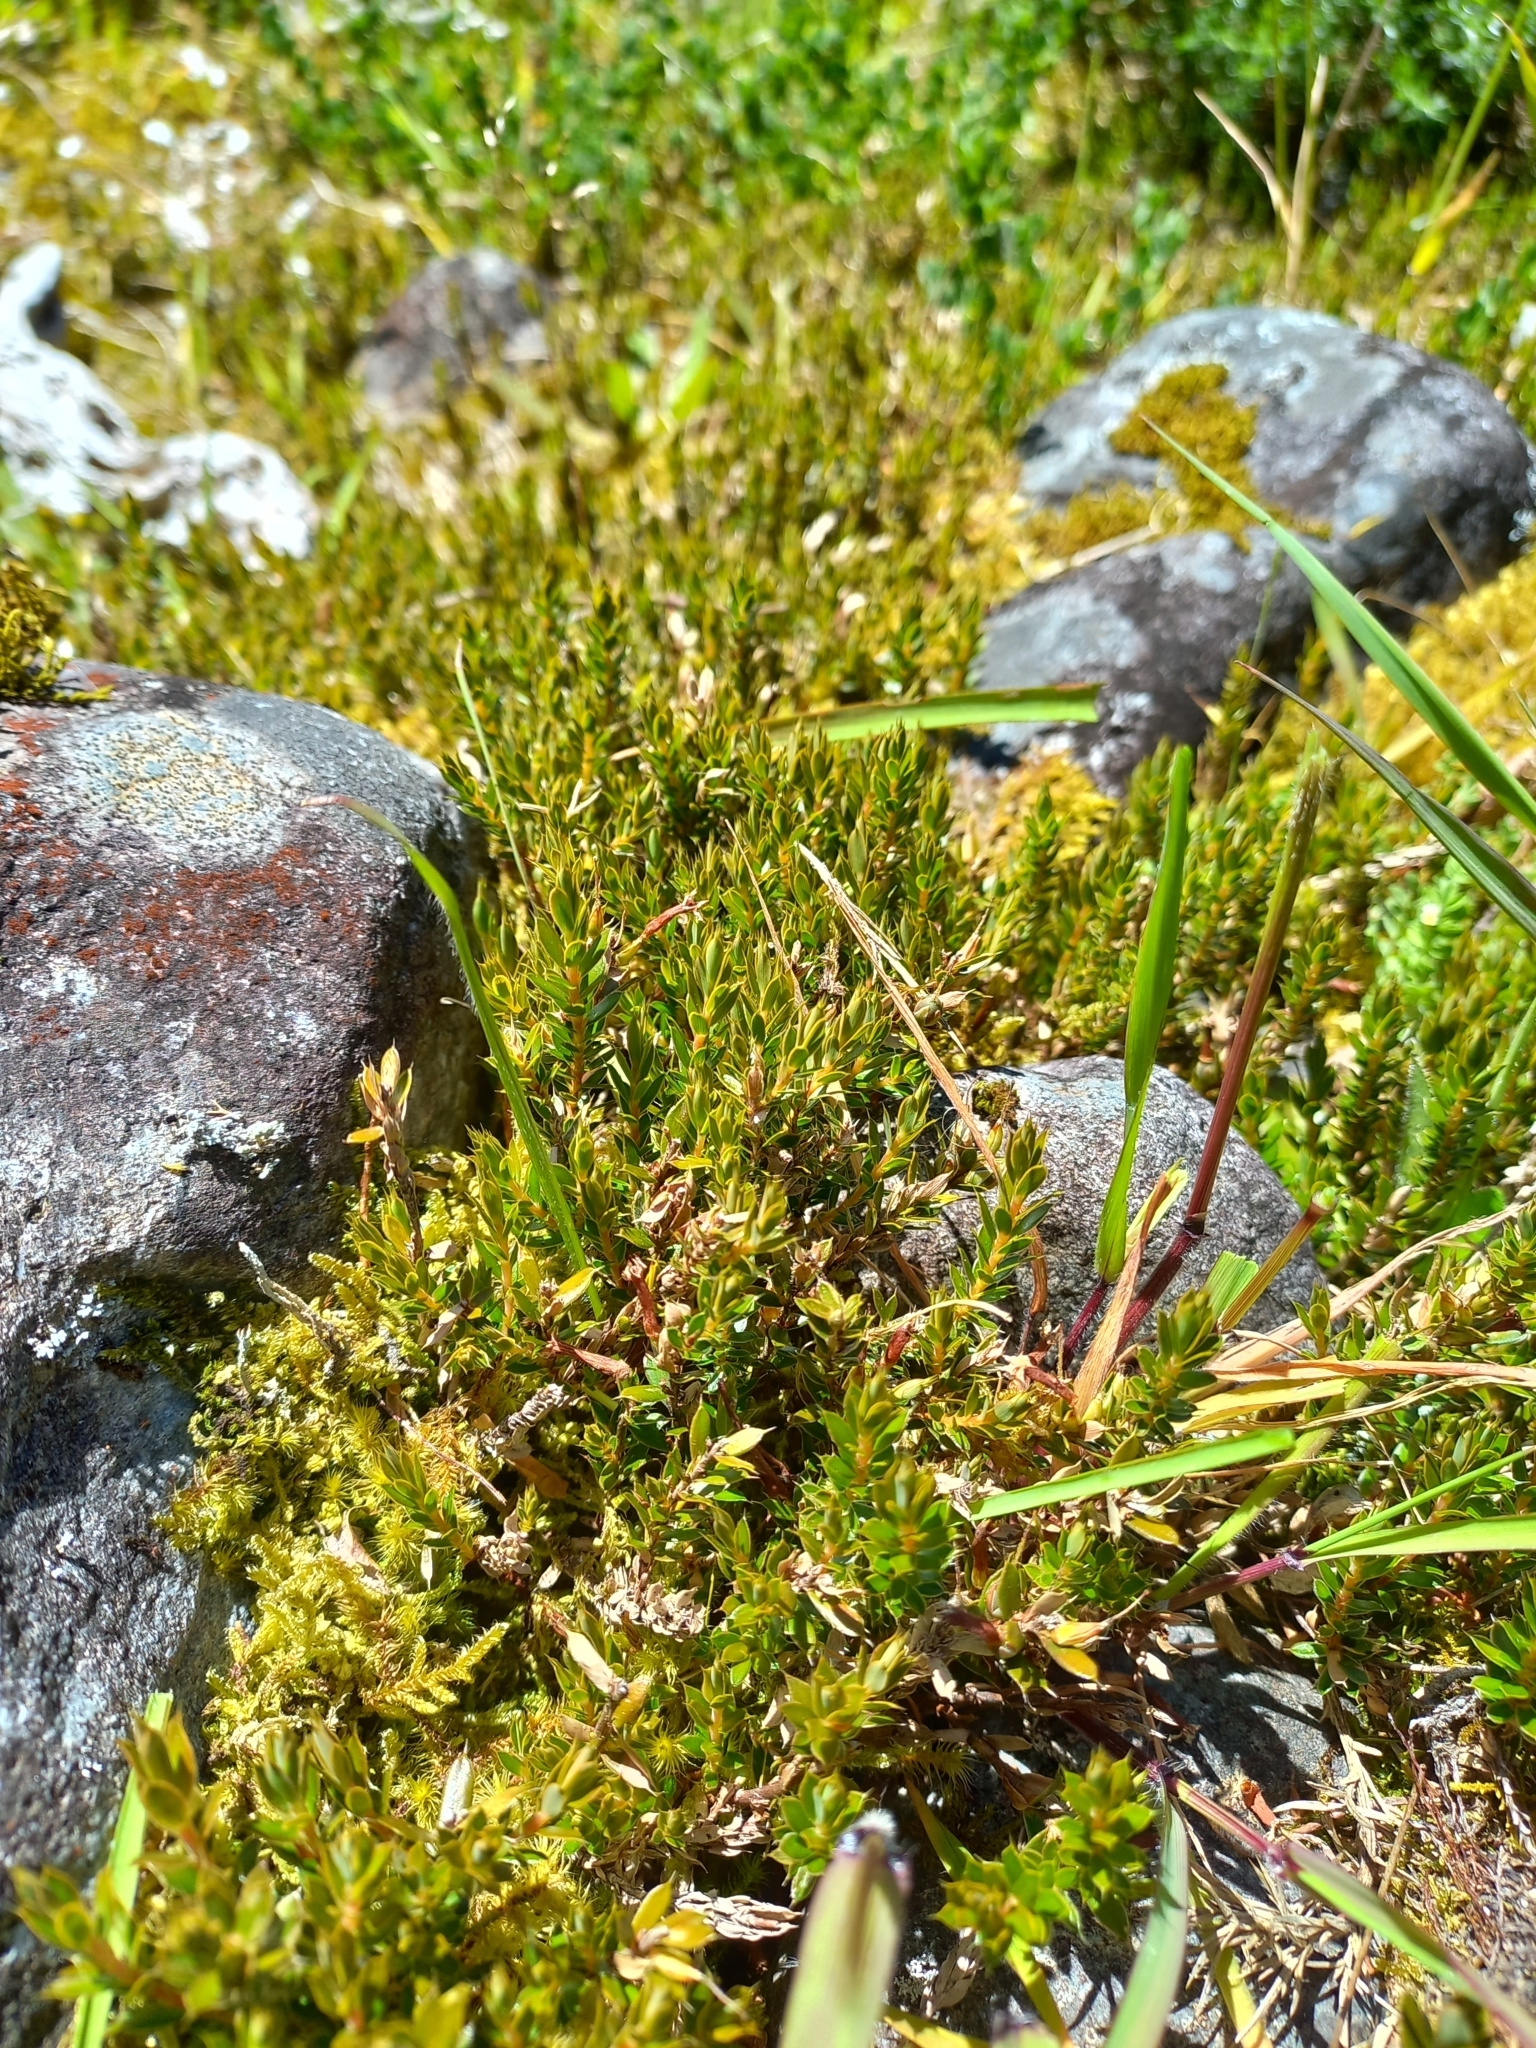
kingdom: Plantae
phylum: Tracheophyta
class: Magnoliopsida
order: Ericales
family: Ericaceae
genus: Styphelia
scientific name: Styphelia nesophila
